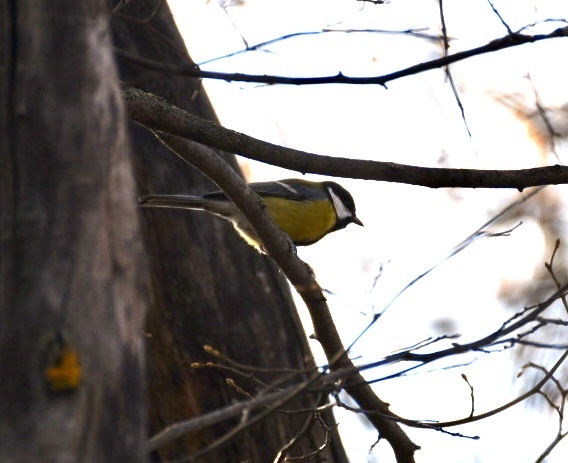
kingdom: Animalia
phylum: Chordata
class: Aves
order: Passeriformes
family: Paridae
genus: Parus
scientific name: Parus major
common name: Great tit
